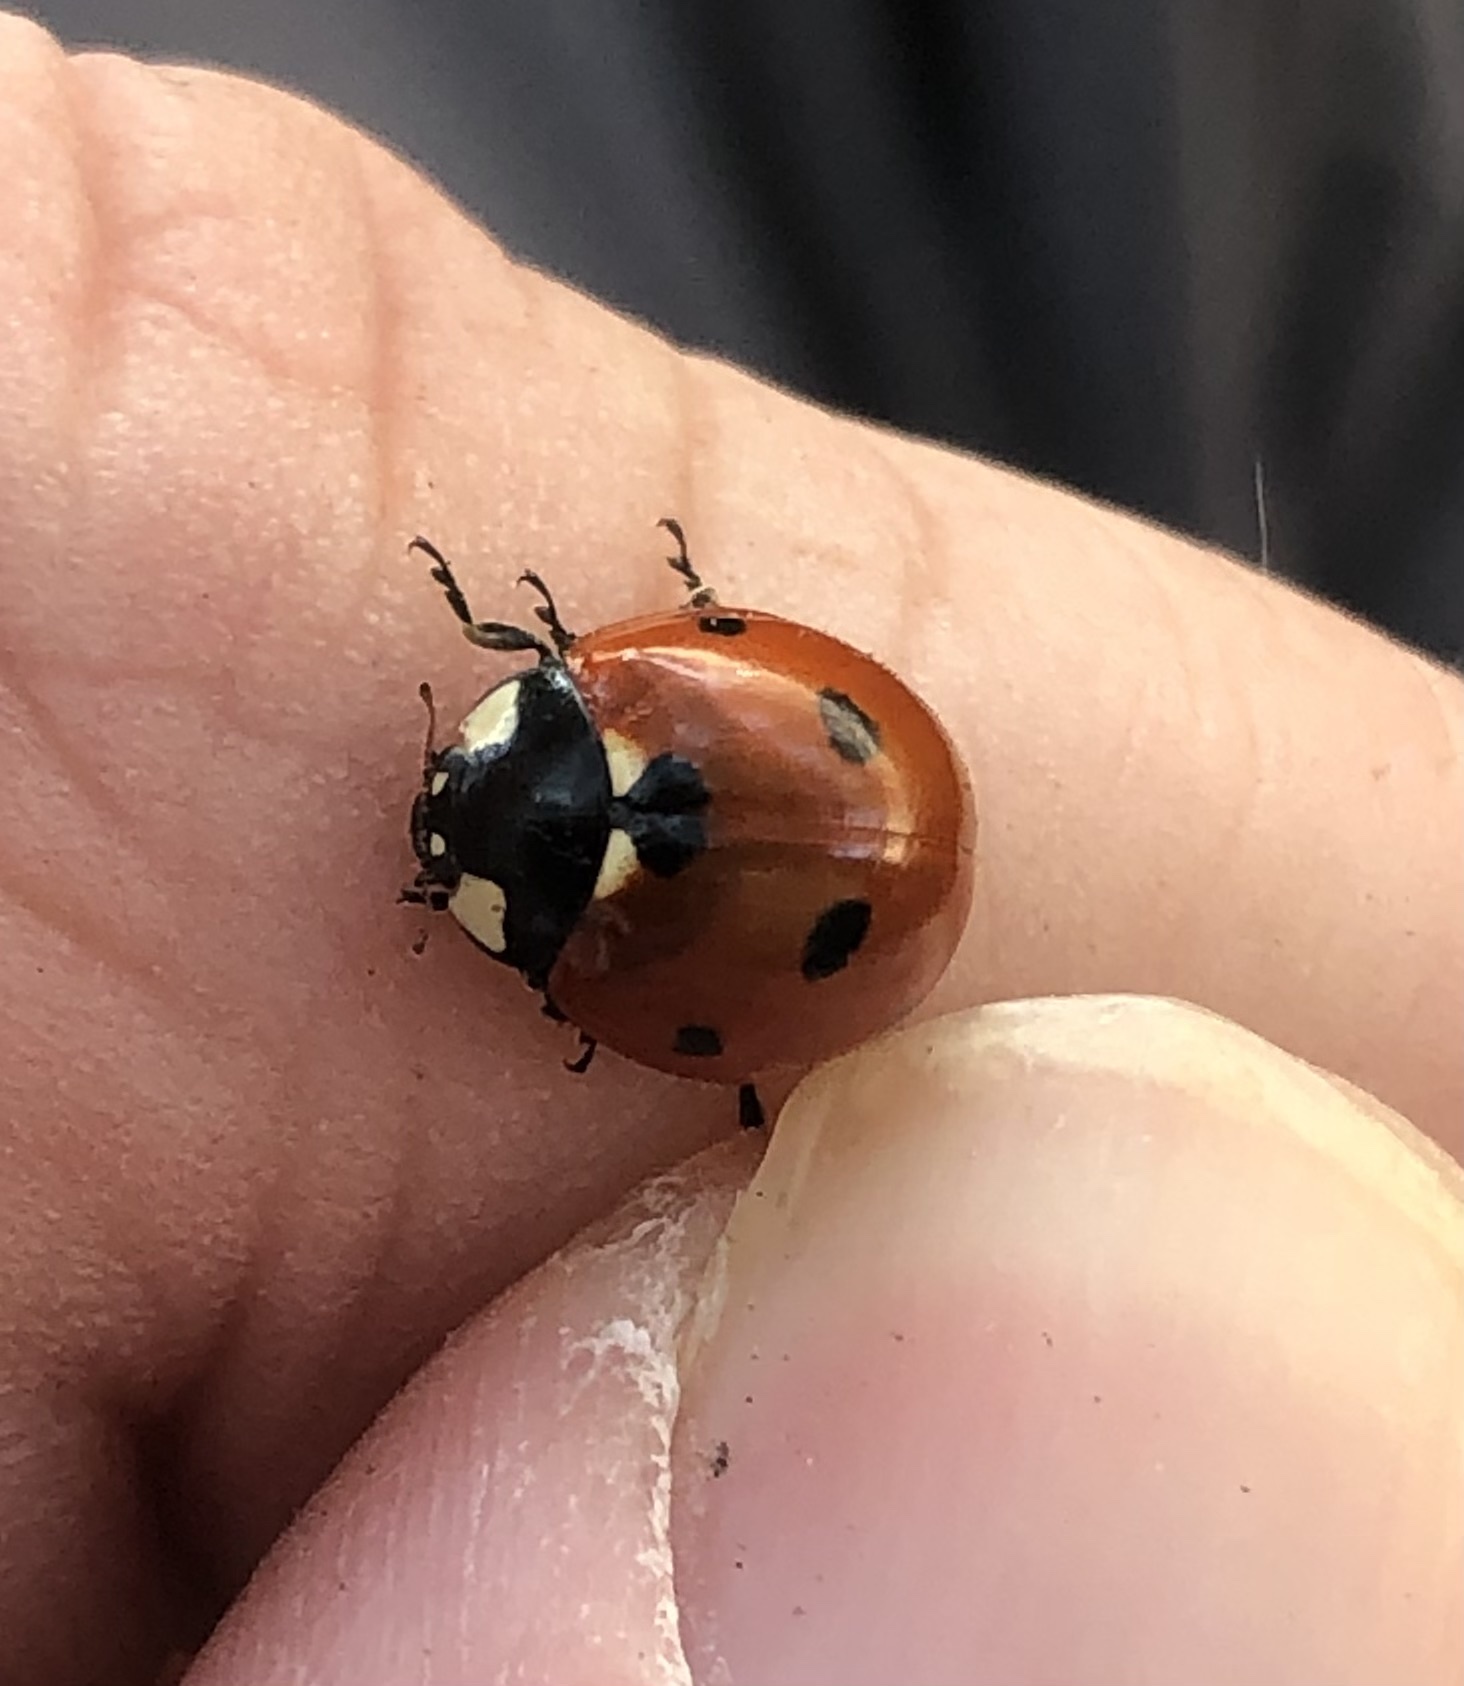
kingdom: Animalia
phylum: Arthropoda
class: Insecta
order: Coleoptera
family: Coccinellidae
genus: Coccinella
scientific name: Coccinella septempunctata
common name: Sevenspotted lady beetle
